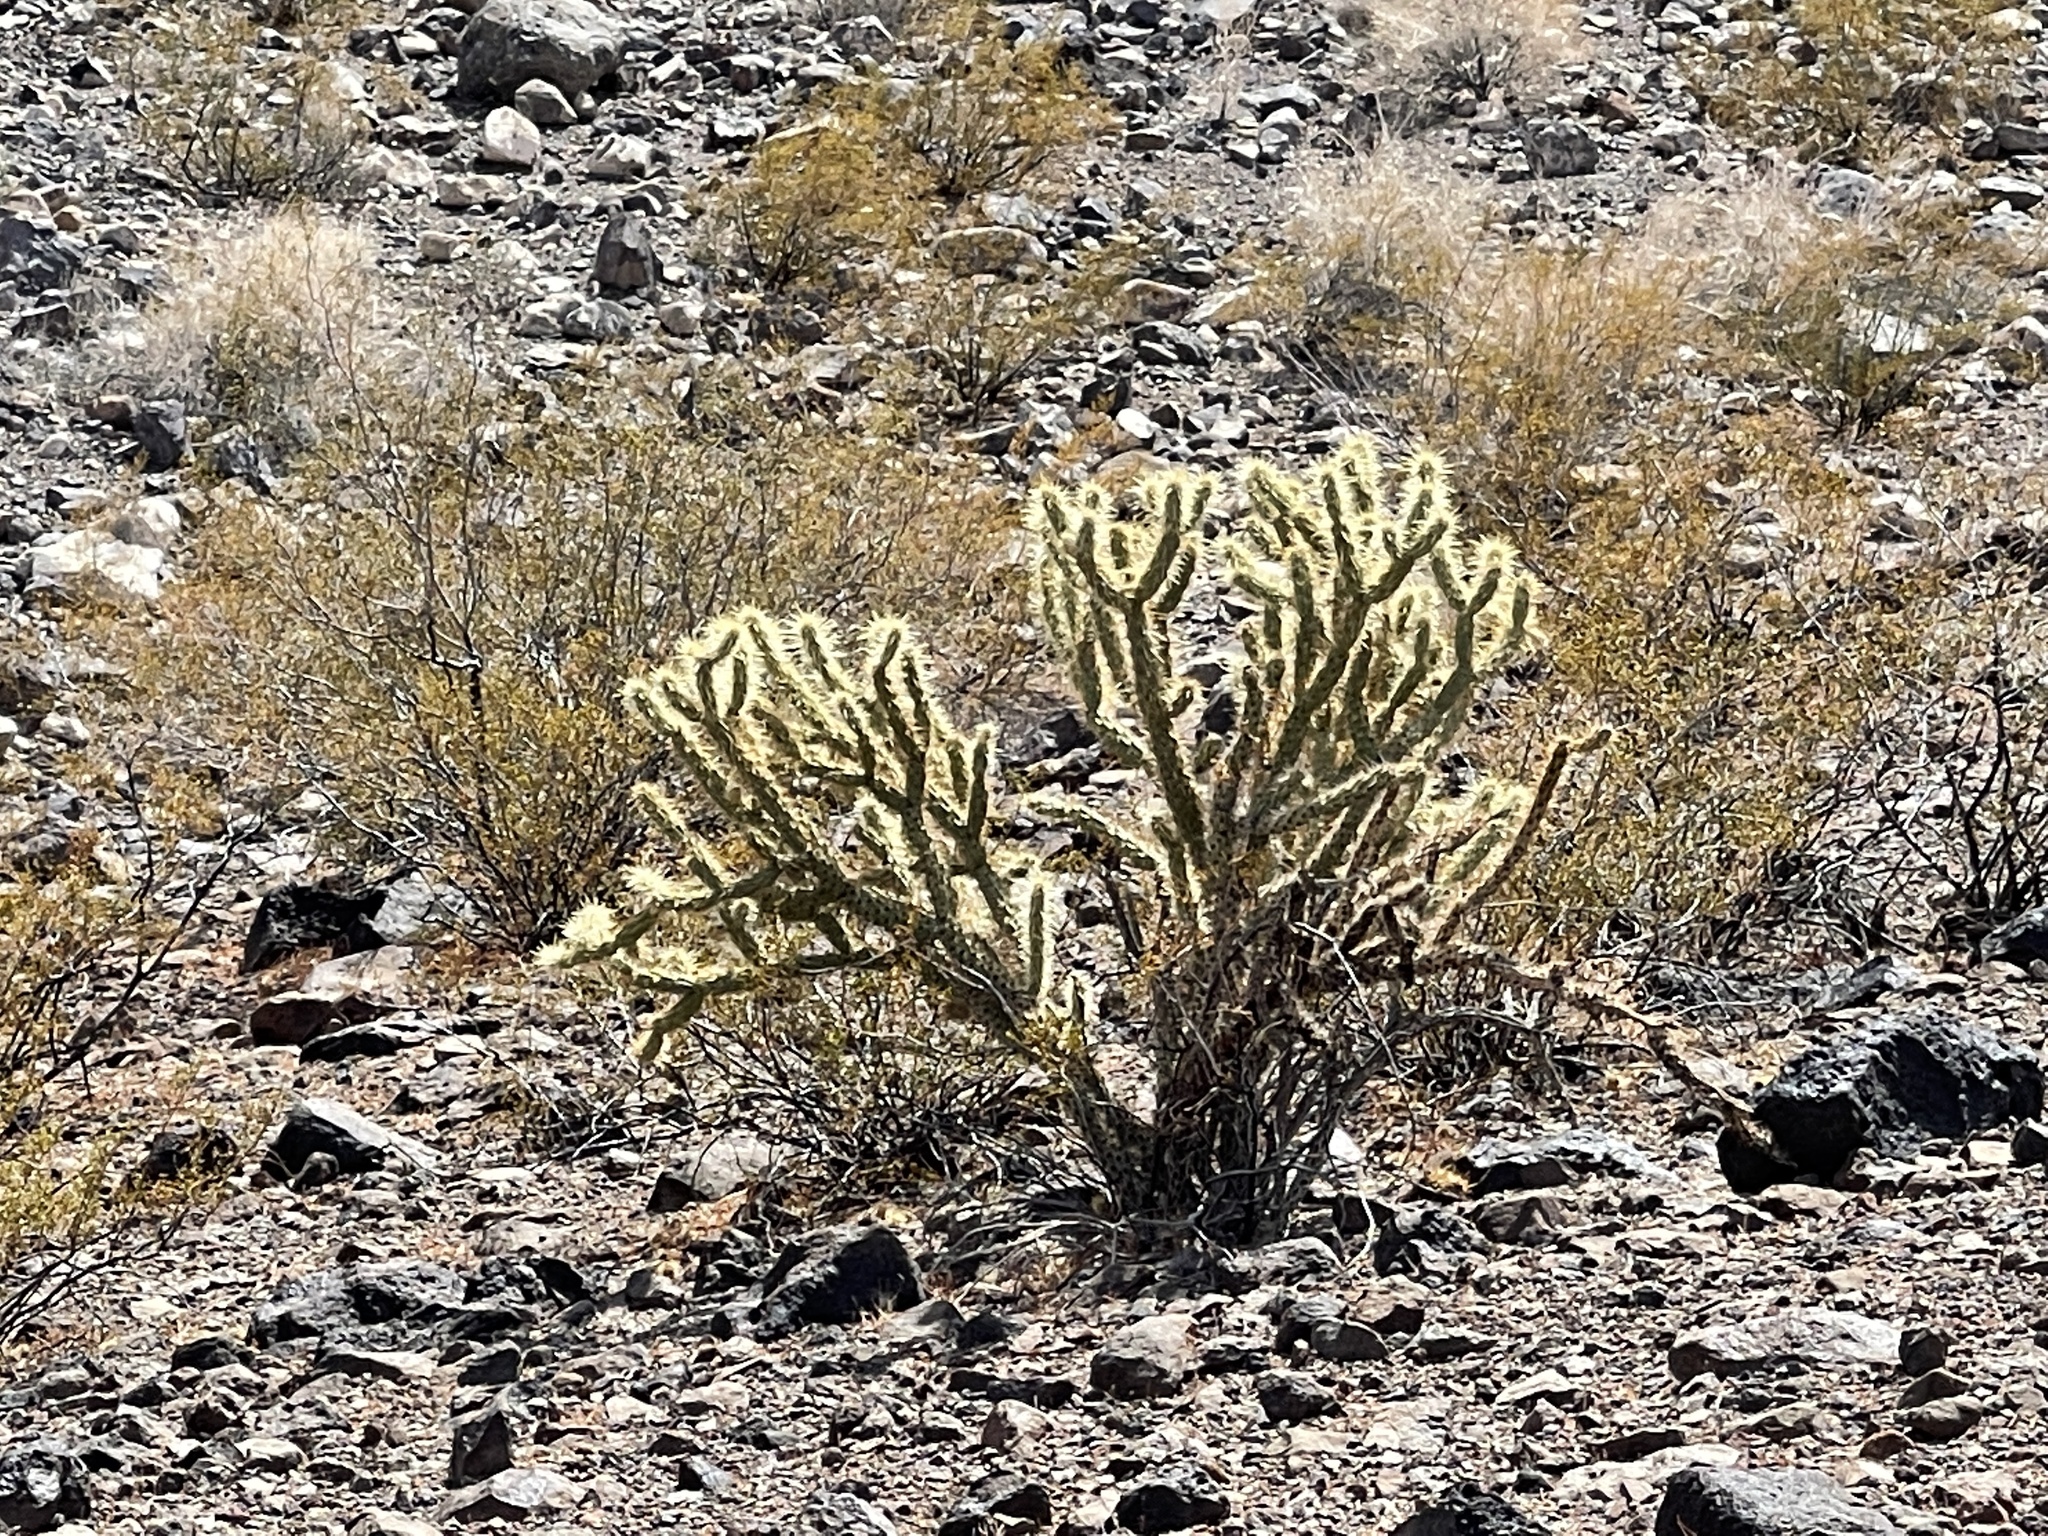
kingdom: Plantae
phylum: Tracheophyta
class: Magnoliopsida
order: Caryophyllales
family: Cactaceae
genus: Cylindropuntia
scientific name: Cylindropuntia acanthocarpa
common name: Buckhorn cholla
